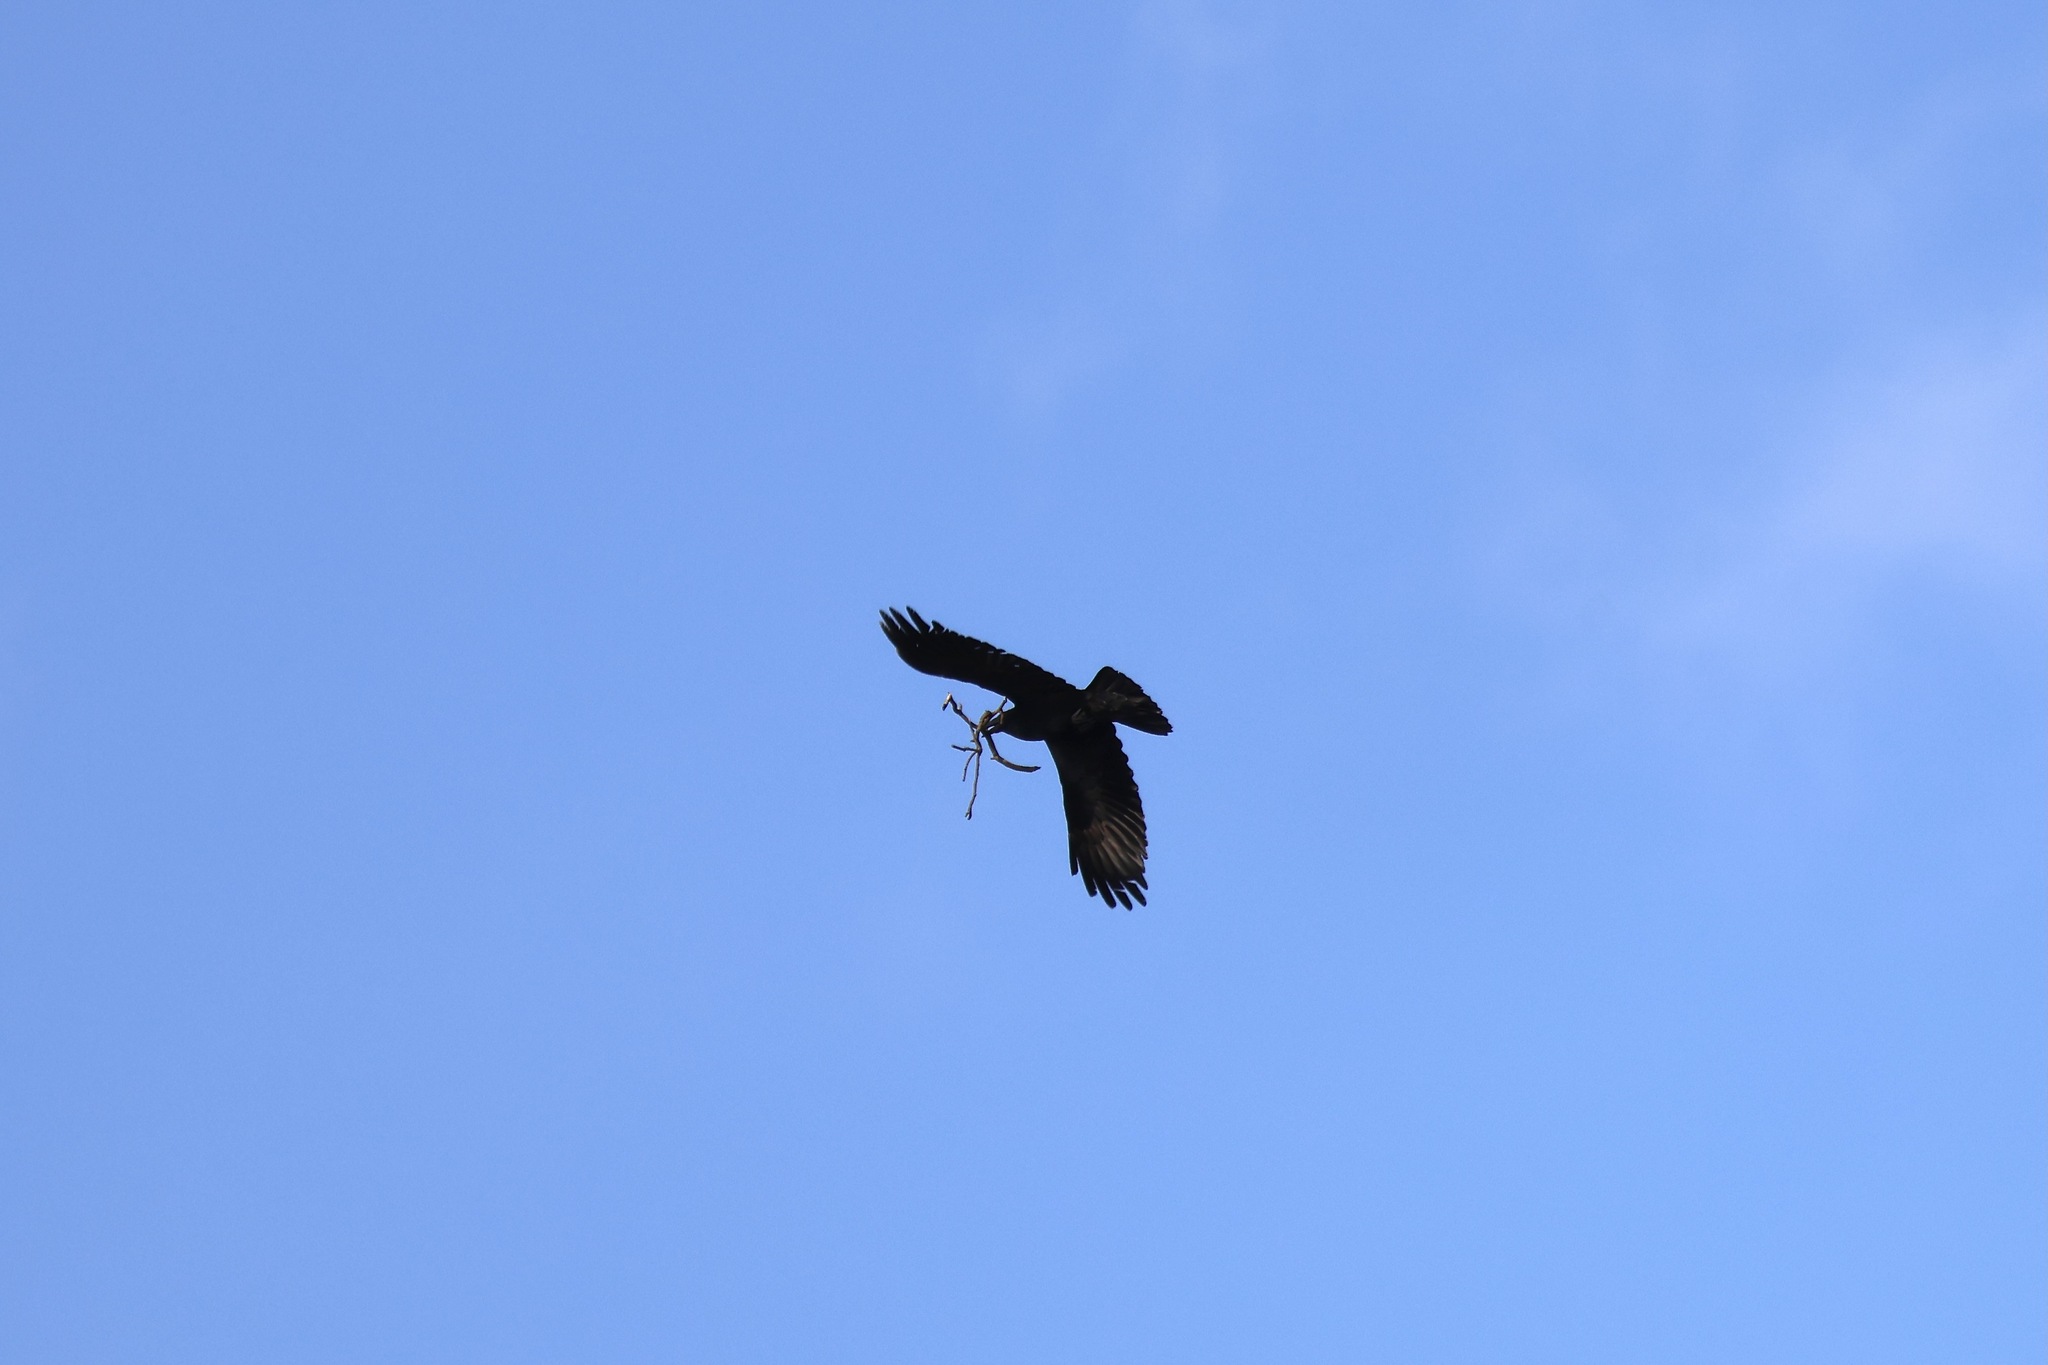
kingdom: Animalia
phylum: Chordata
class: Aves
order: Passeriformes
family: Corvidae
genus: Corvus
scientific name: Corvus corax
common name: Common raven
